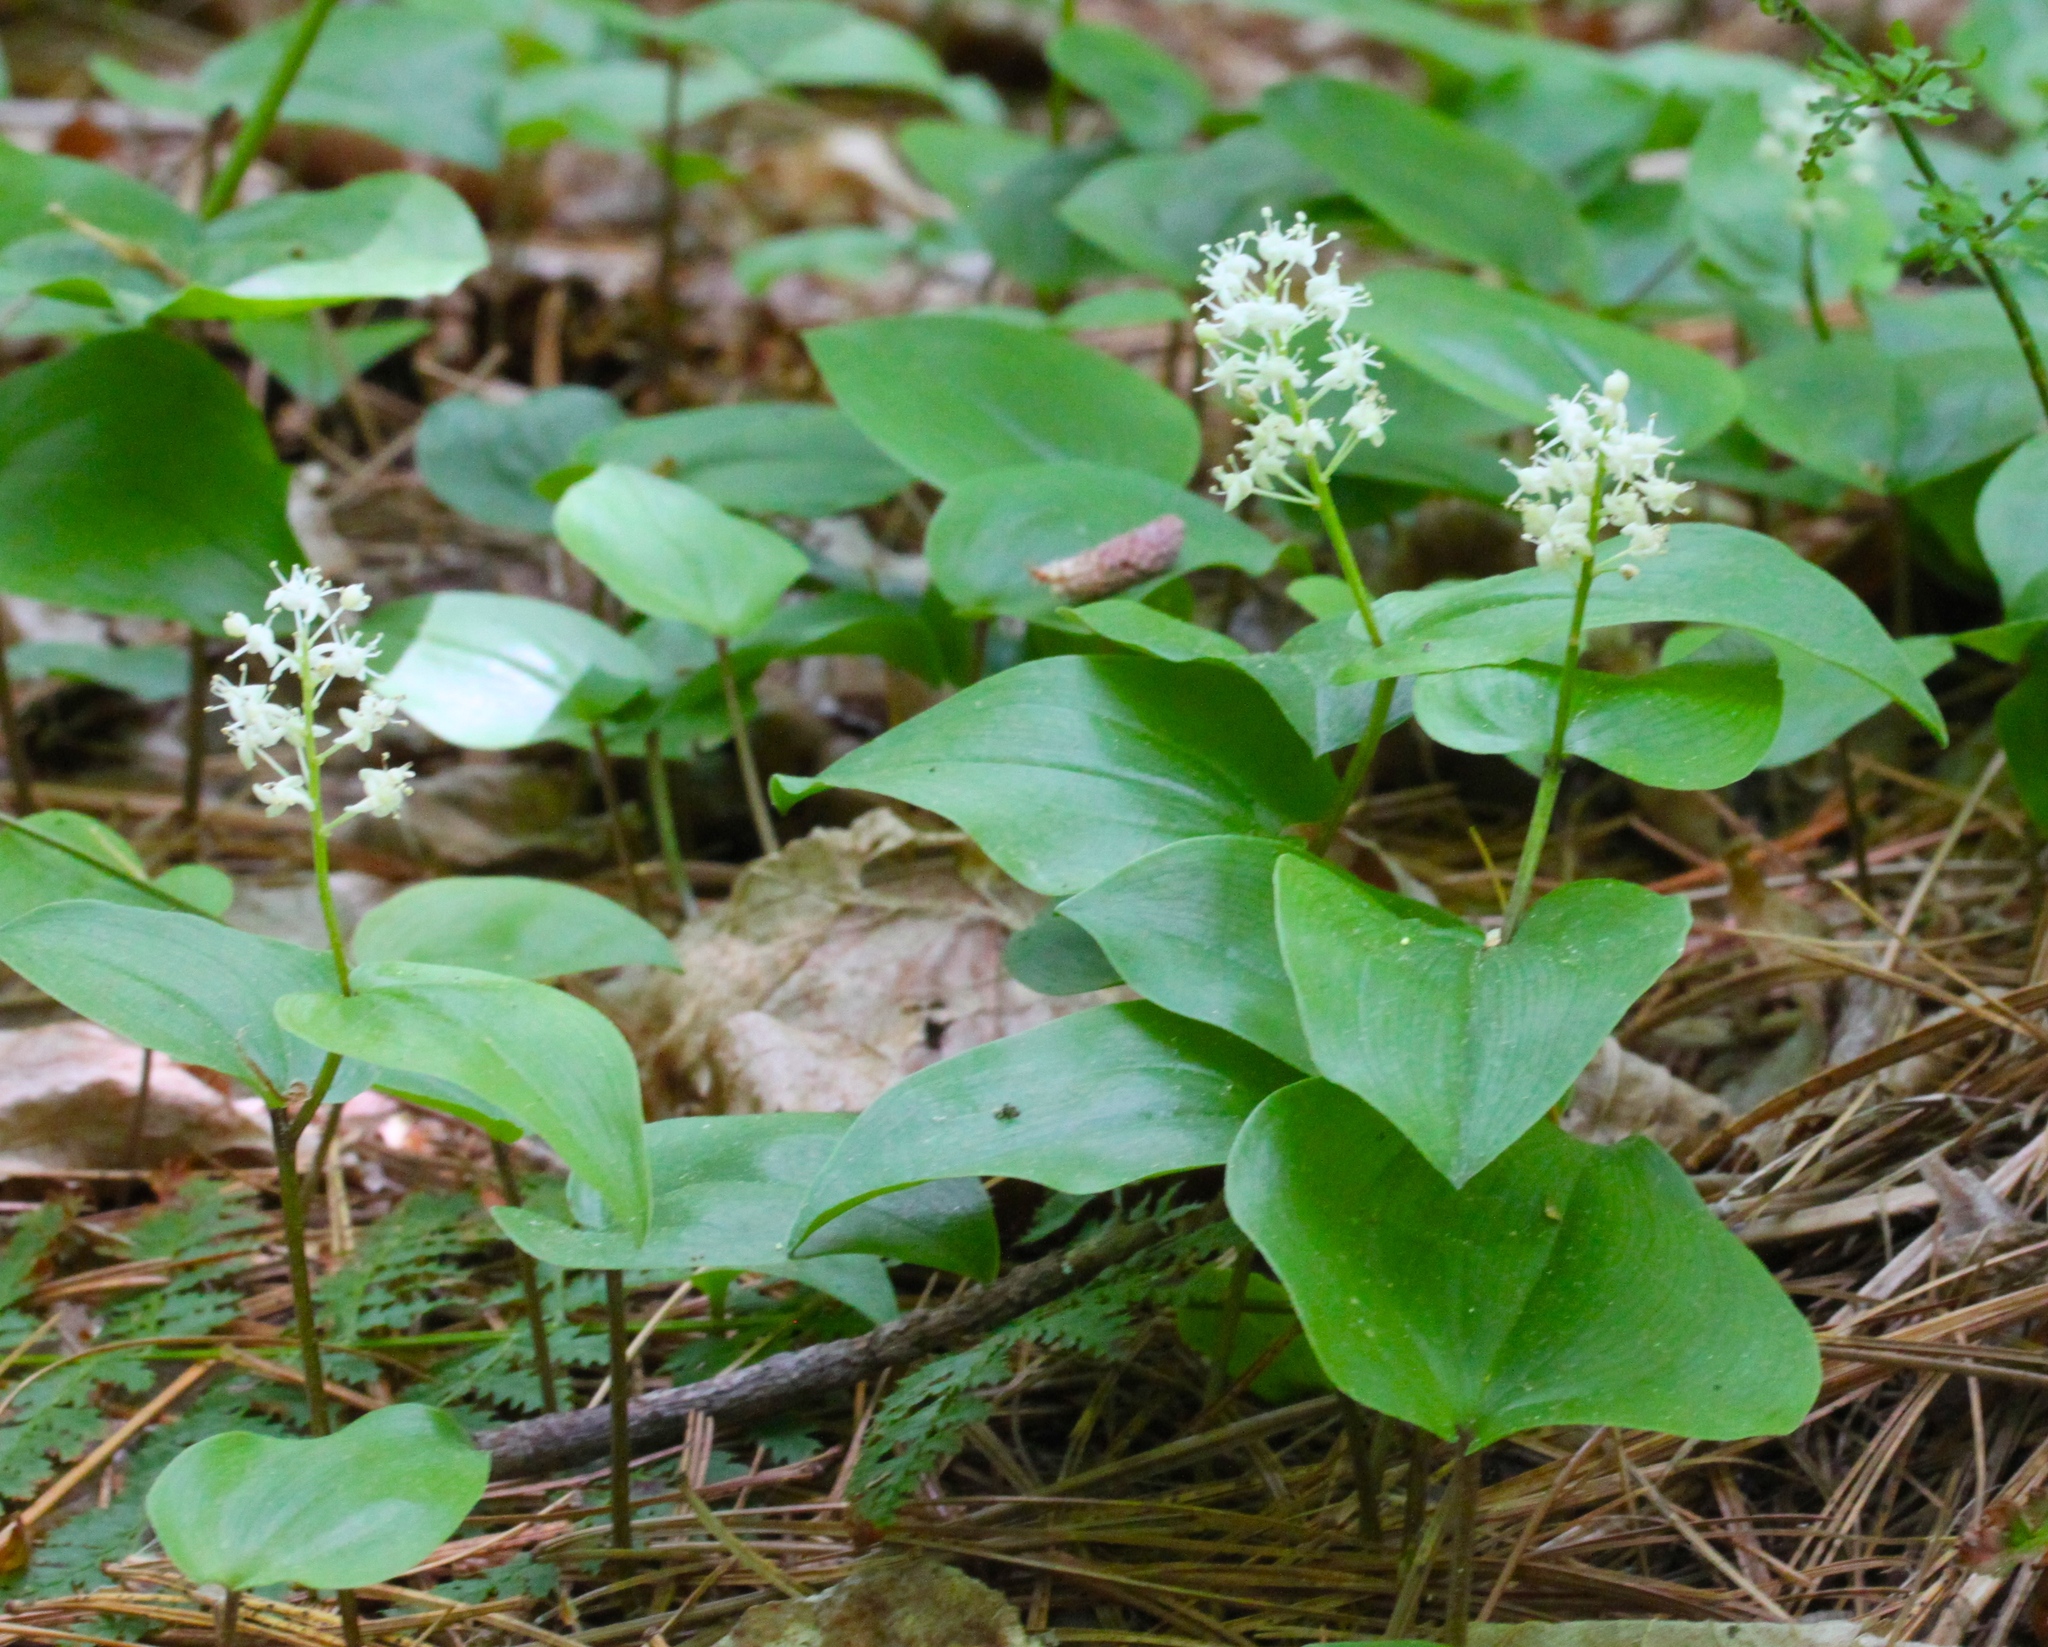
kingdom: Plantae
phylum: Tracheophyta
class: Liliopsida
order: Asparagales
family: Asparagaceae
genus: Maianthemum
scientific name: Maianthemum canadense
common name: False lily-of-the-valley
